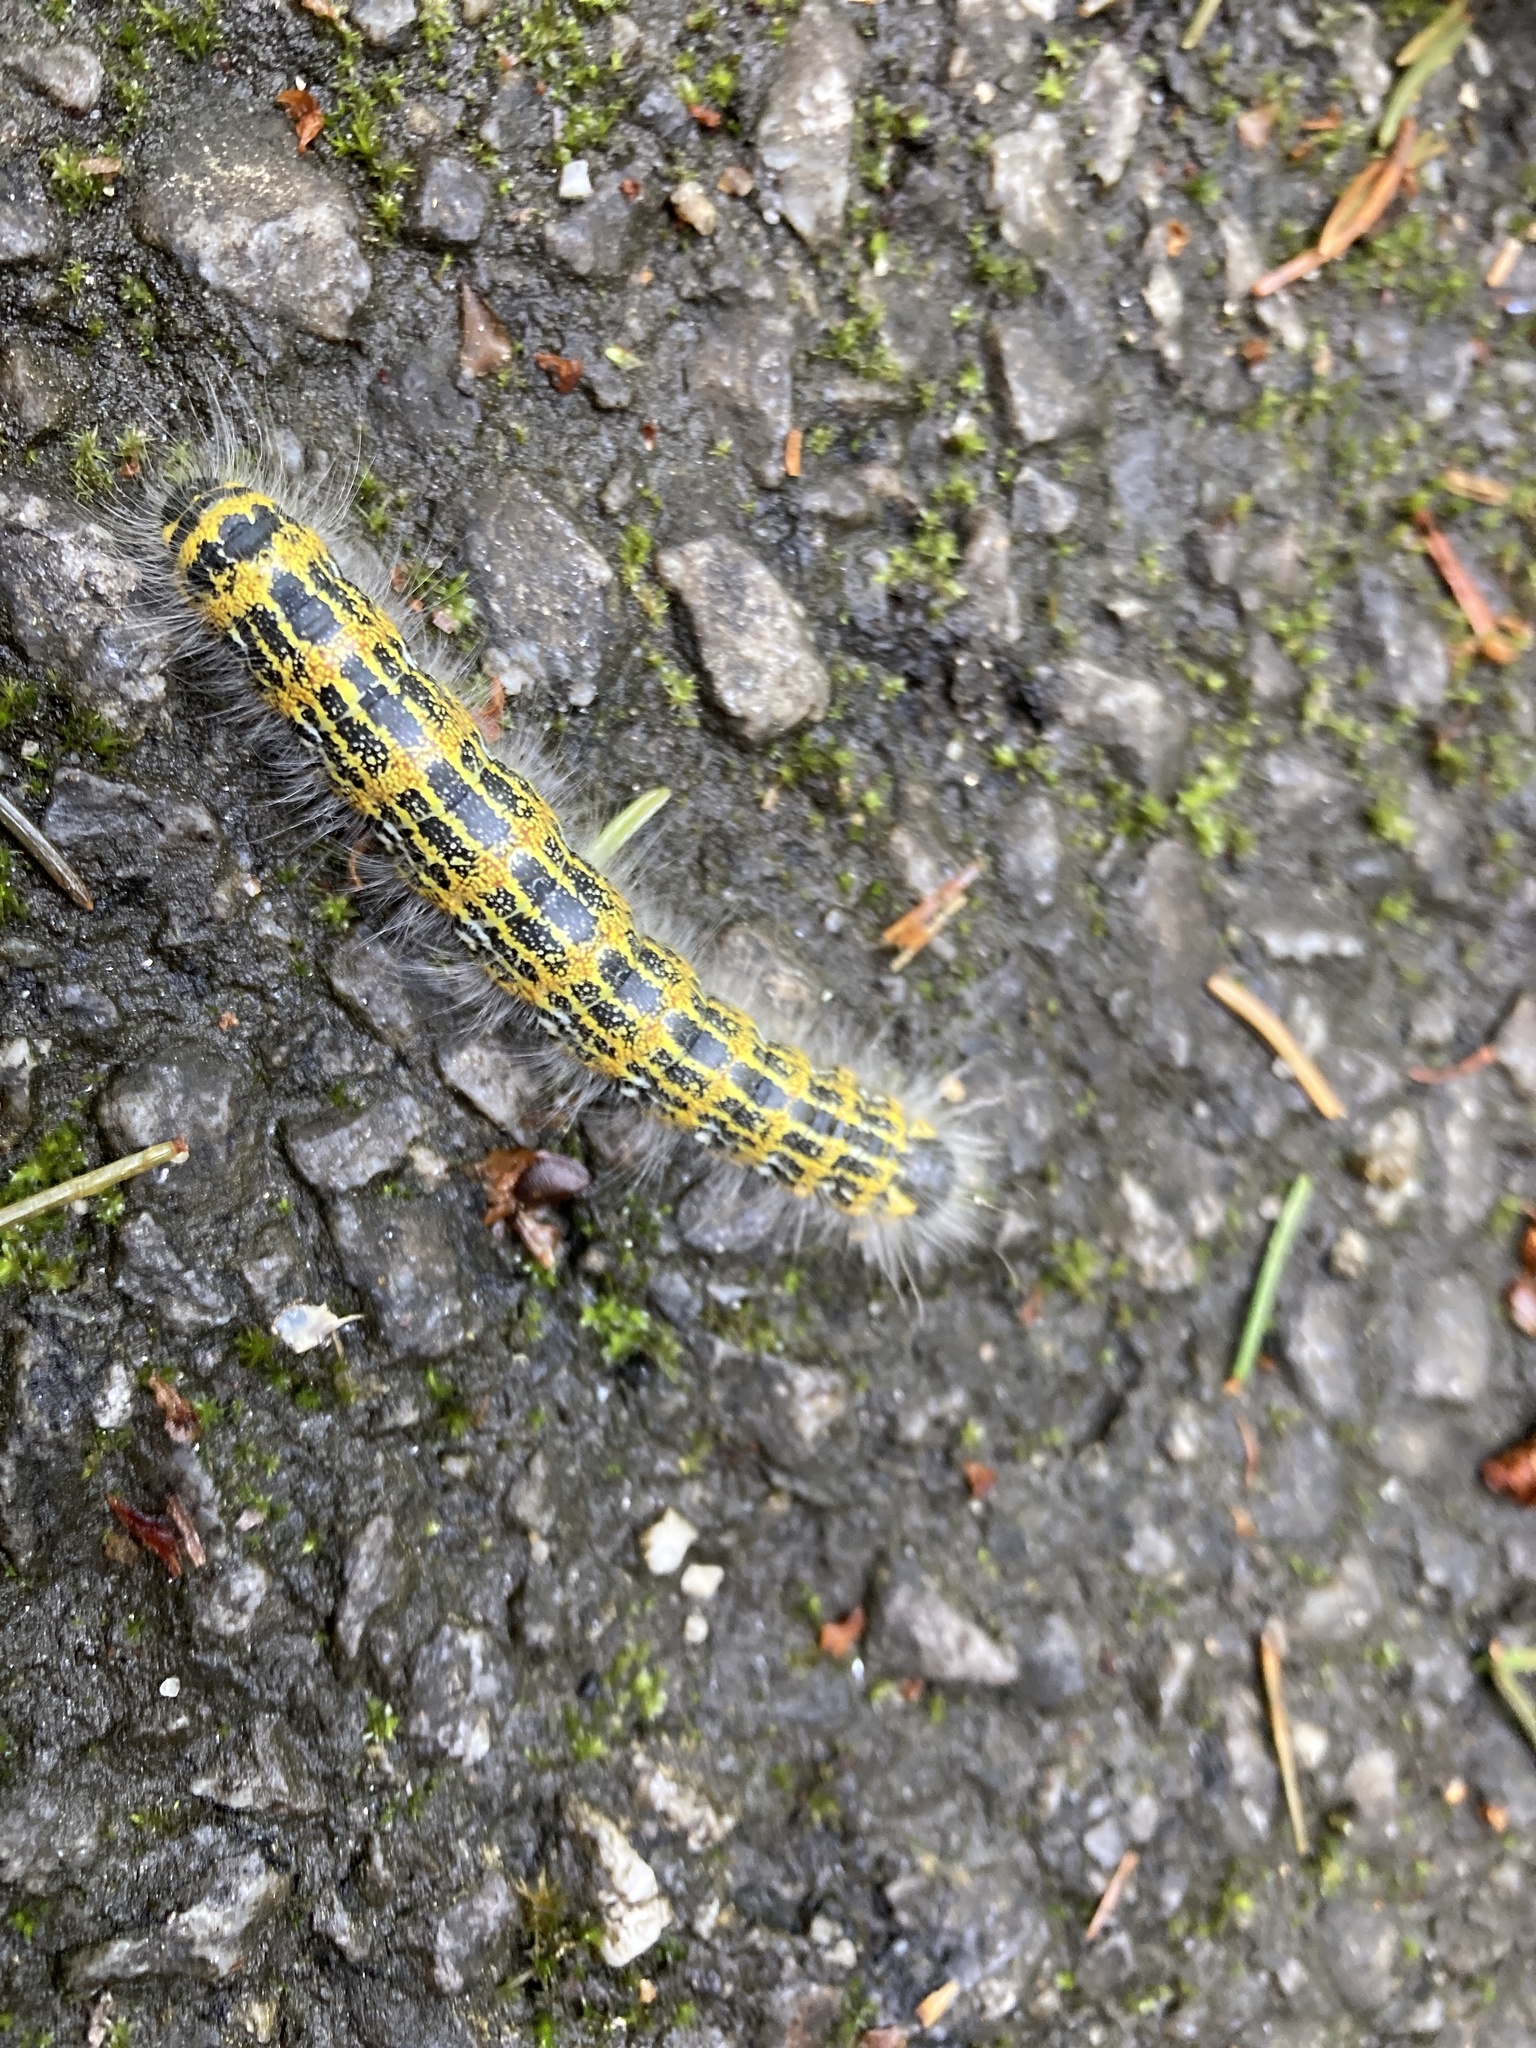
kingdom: Animalia
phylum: Arthropoda
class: Insecta
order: Lepidoptera
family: Notodontidae
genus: Phalera
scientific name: Phalera bucephala
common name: Buff-tip
